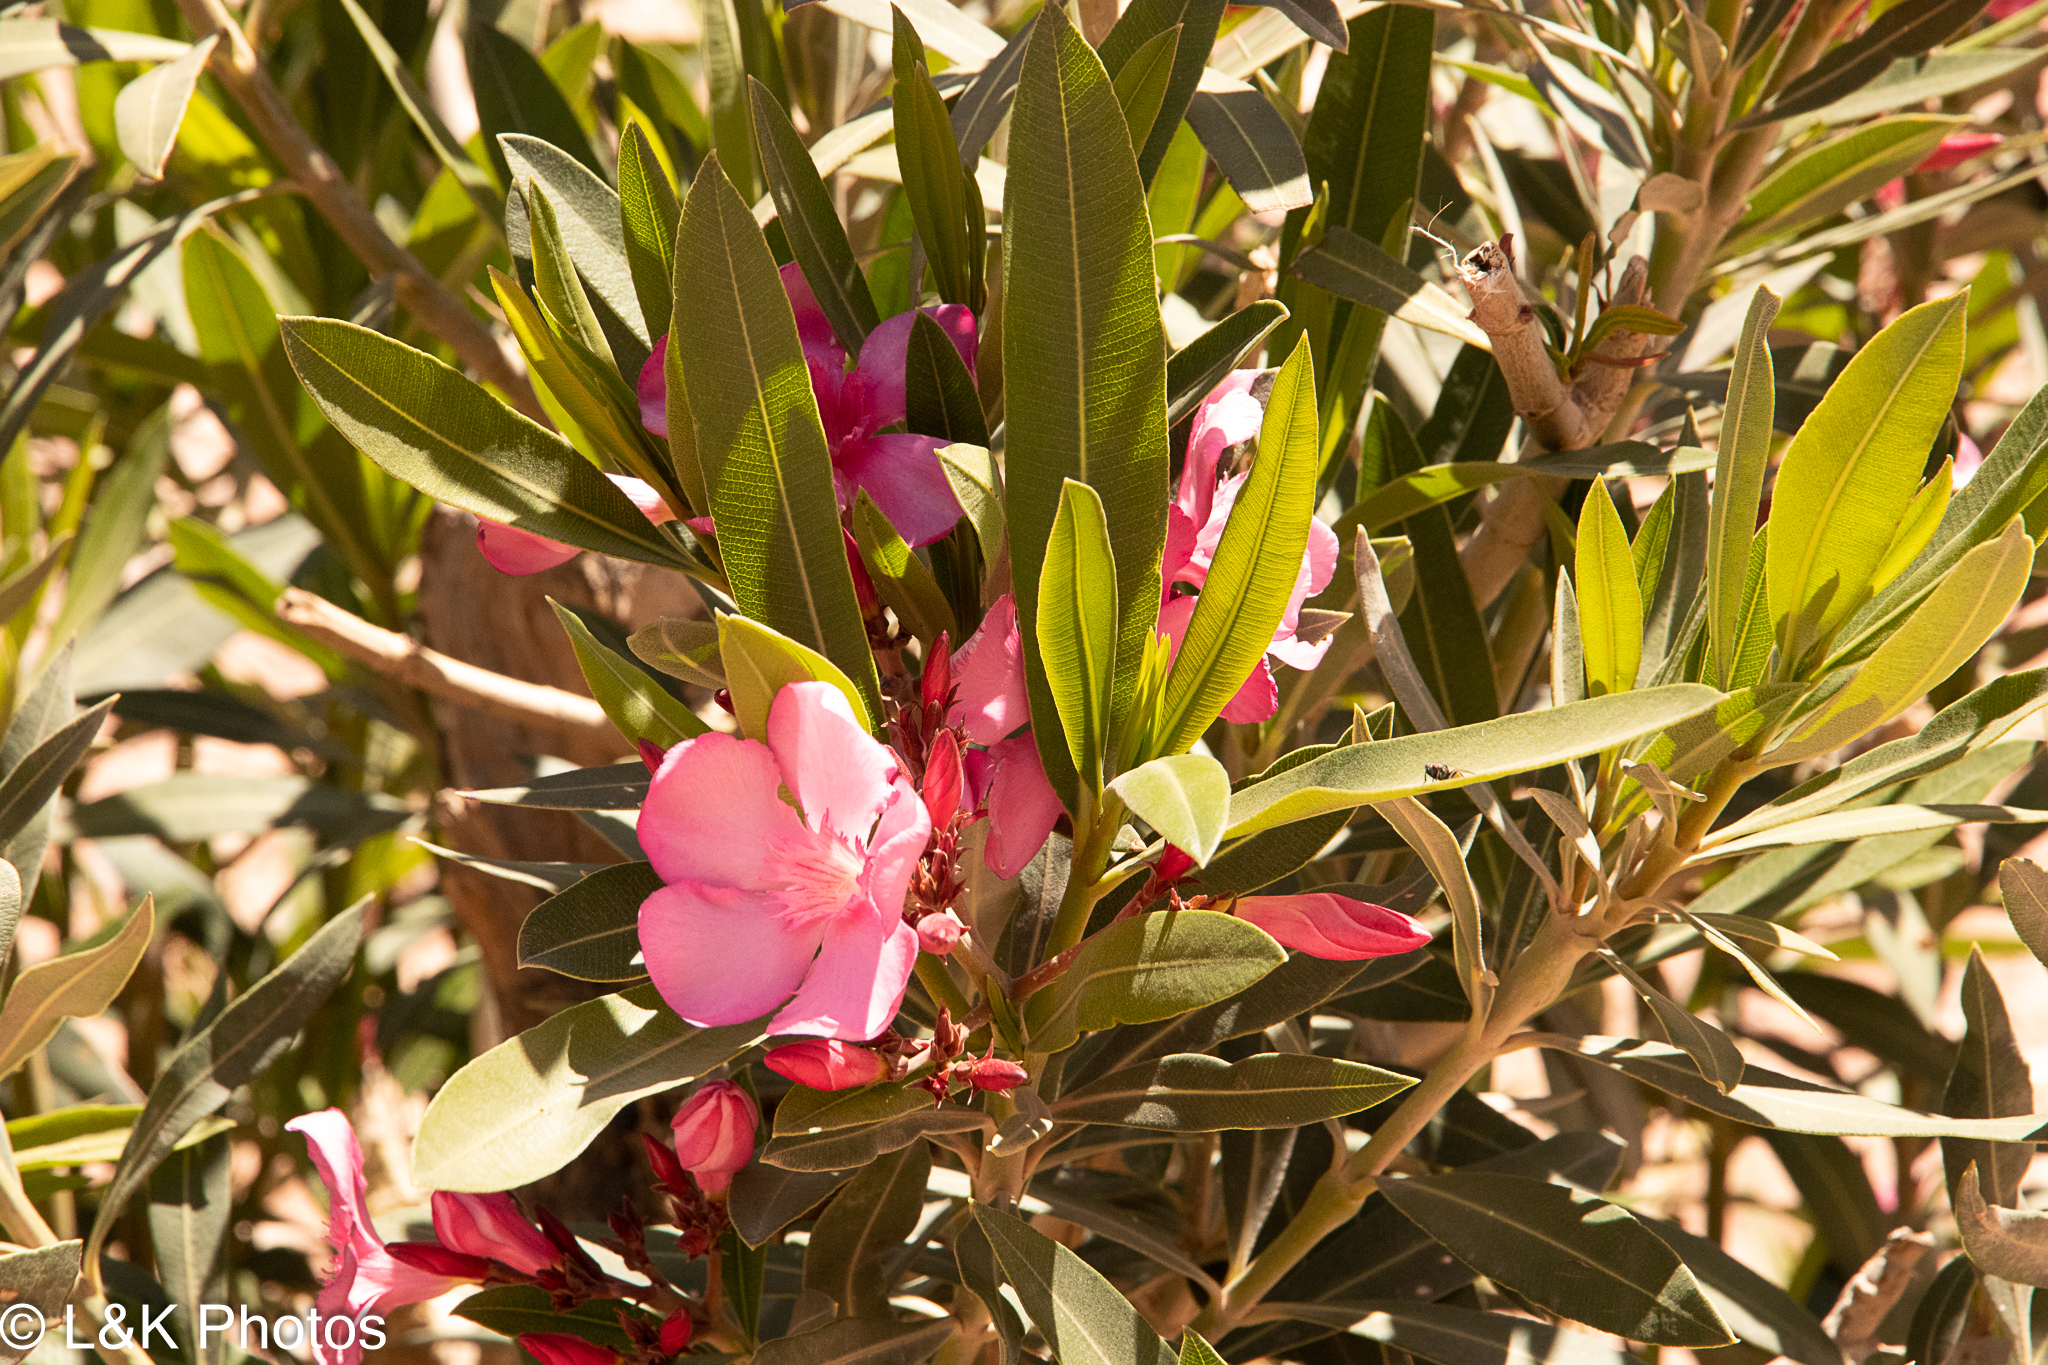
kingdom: Plantae
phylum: Tracheophyta
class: Magnoliopsida
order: Gentianales
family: Apocynaceae
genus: Nerium
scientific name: Nerium oleander
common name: Oleander
